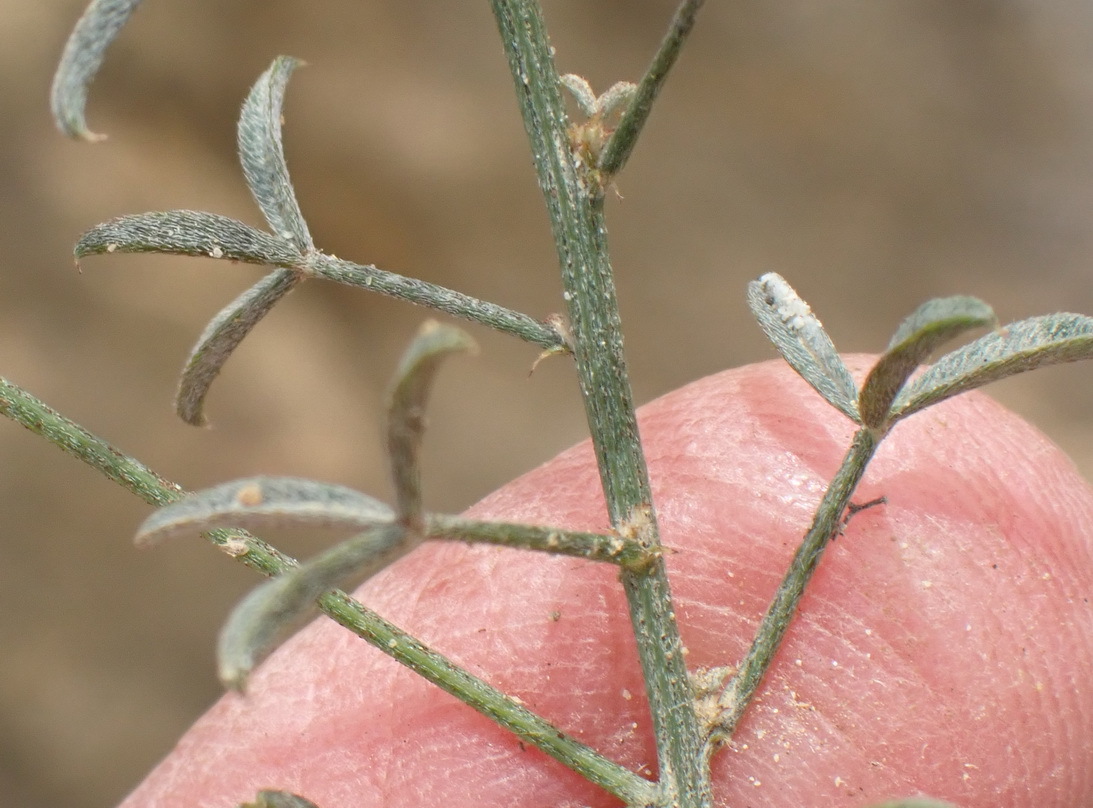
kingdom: Plantae
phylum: Tracheophyta
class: Magnoliopsida
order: Fabales
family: Fabaceae
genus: Indigofera
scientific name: Indigofera heterophylla
